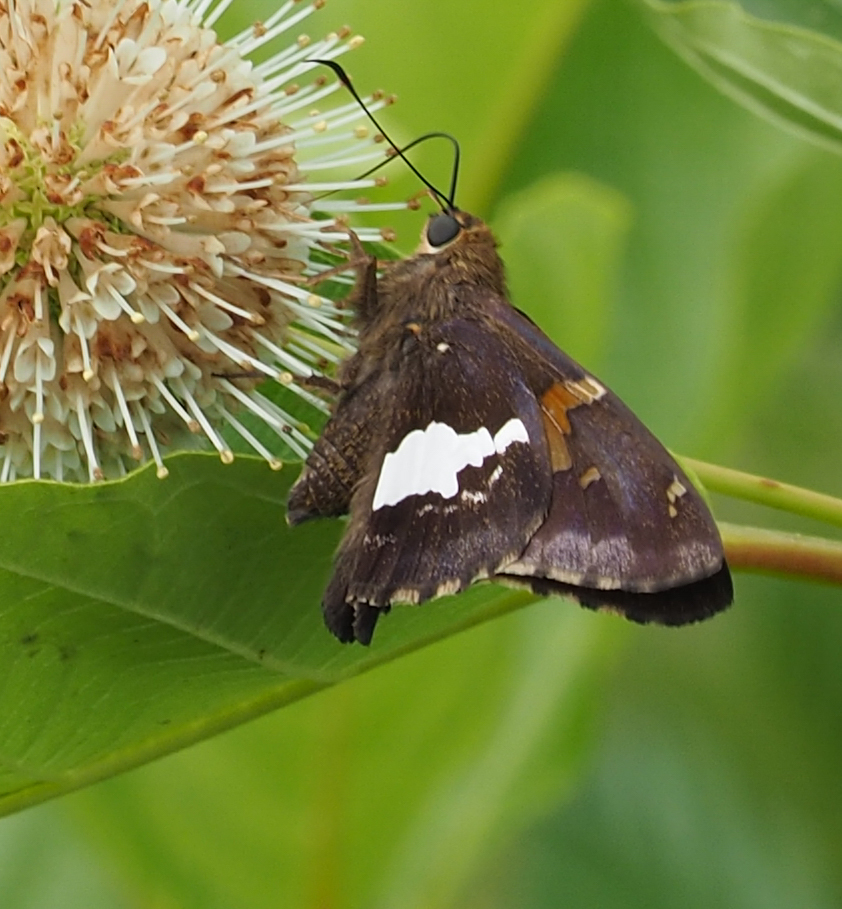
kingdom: Animalia
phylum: Arthropoda
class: Insecta
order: Lepidoptera
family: Hesperiidae
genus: Epargyreus
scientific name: Epargyreus clarus
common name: Silver-spotted skipper
